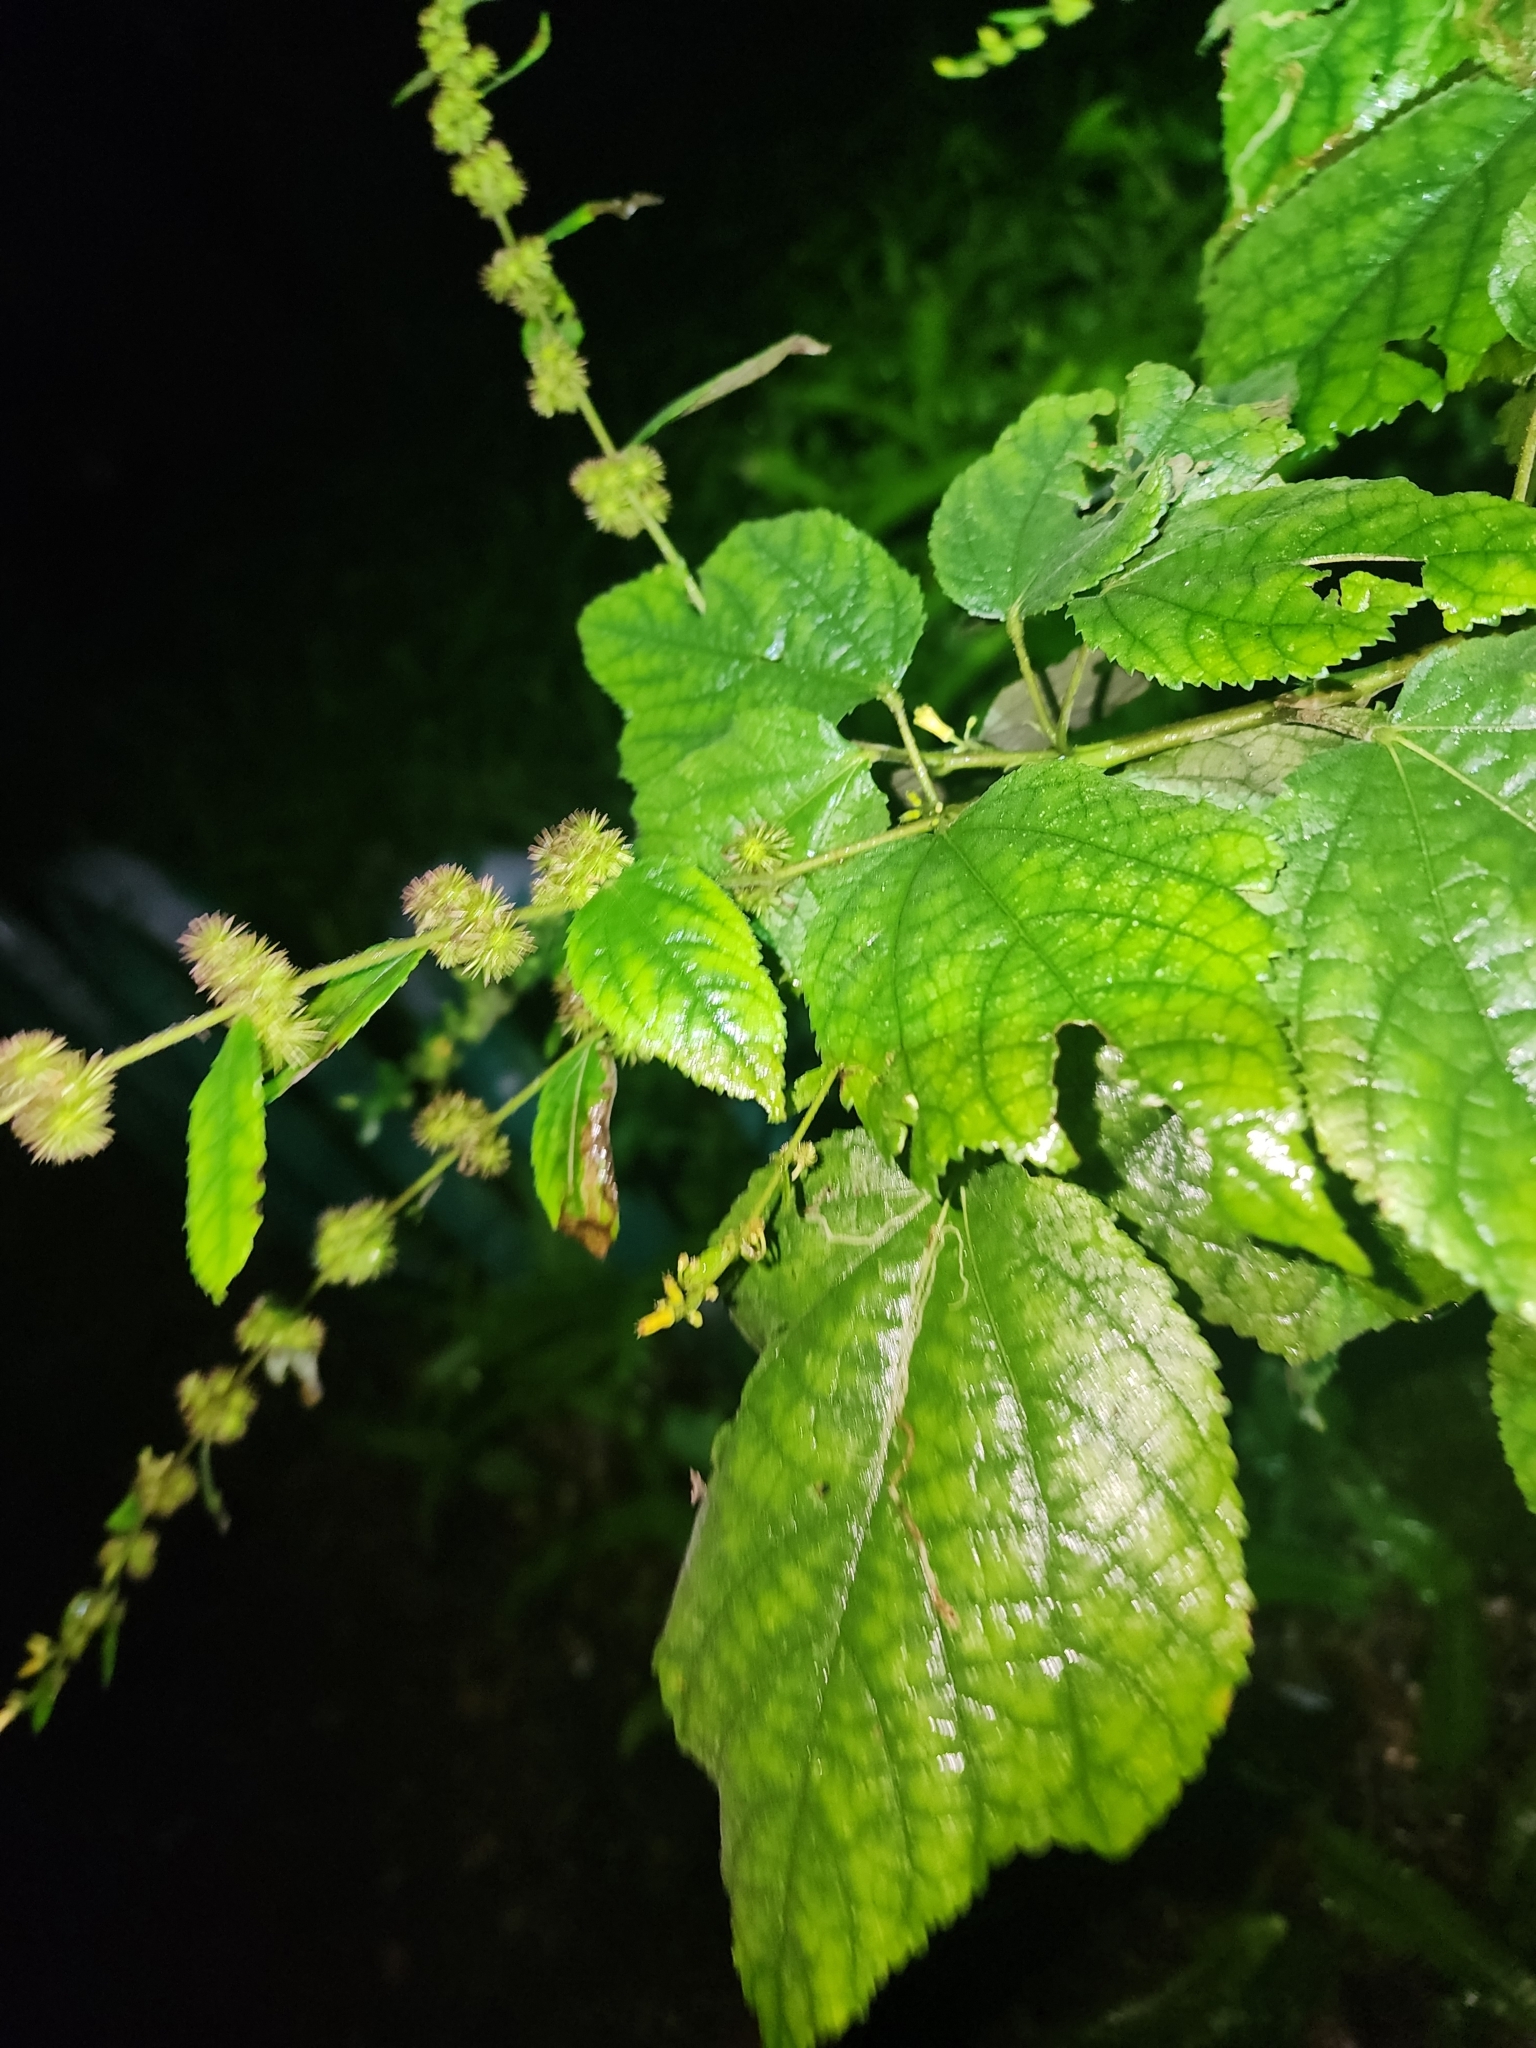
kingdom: Plantae
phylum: Tracheophyta
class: Magnoliopsida
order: Malvales
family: Malvaceae
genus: Triumfetta
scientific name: Triumfetta semitriloba
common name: Sacramento burbark
